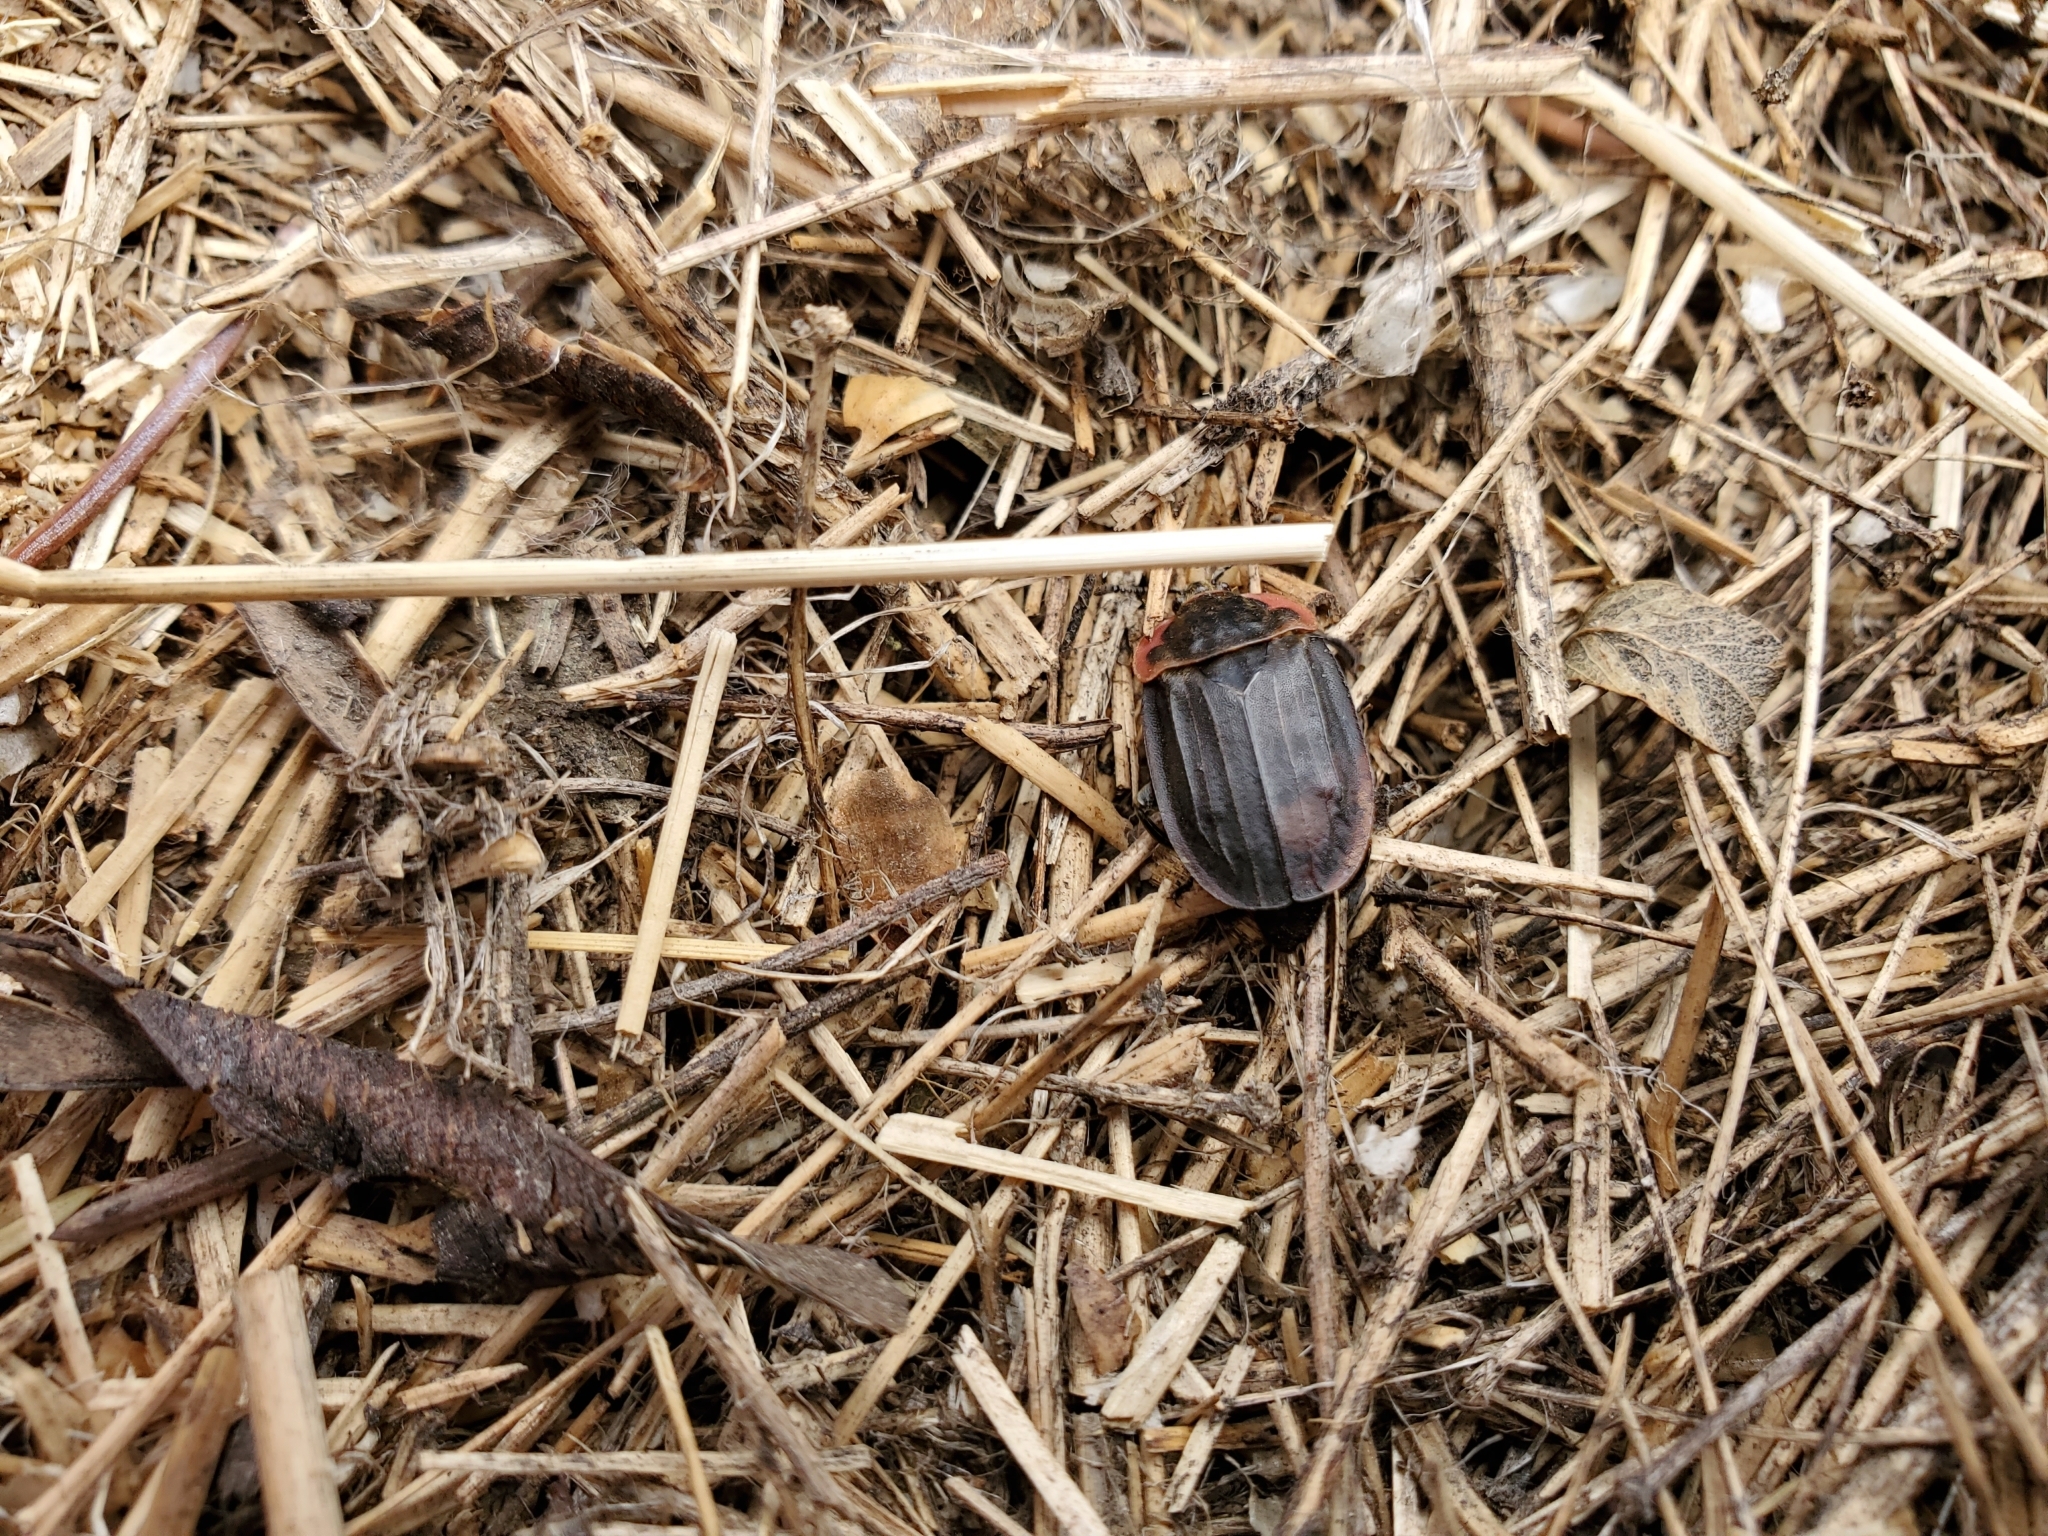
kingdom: Animalia
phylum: Arthropoda
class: Insecta
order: Coleoptera
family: Staphylinidae
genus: Oiceoptoma
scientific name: Oiceoptoma noveboracense
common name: Margined carrion beetle
